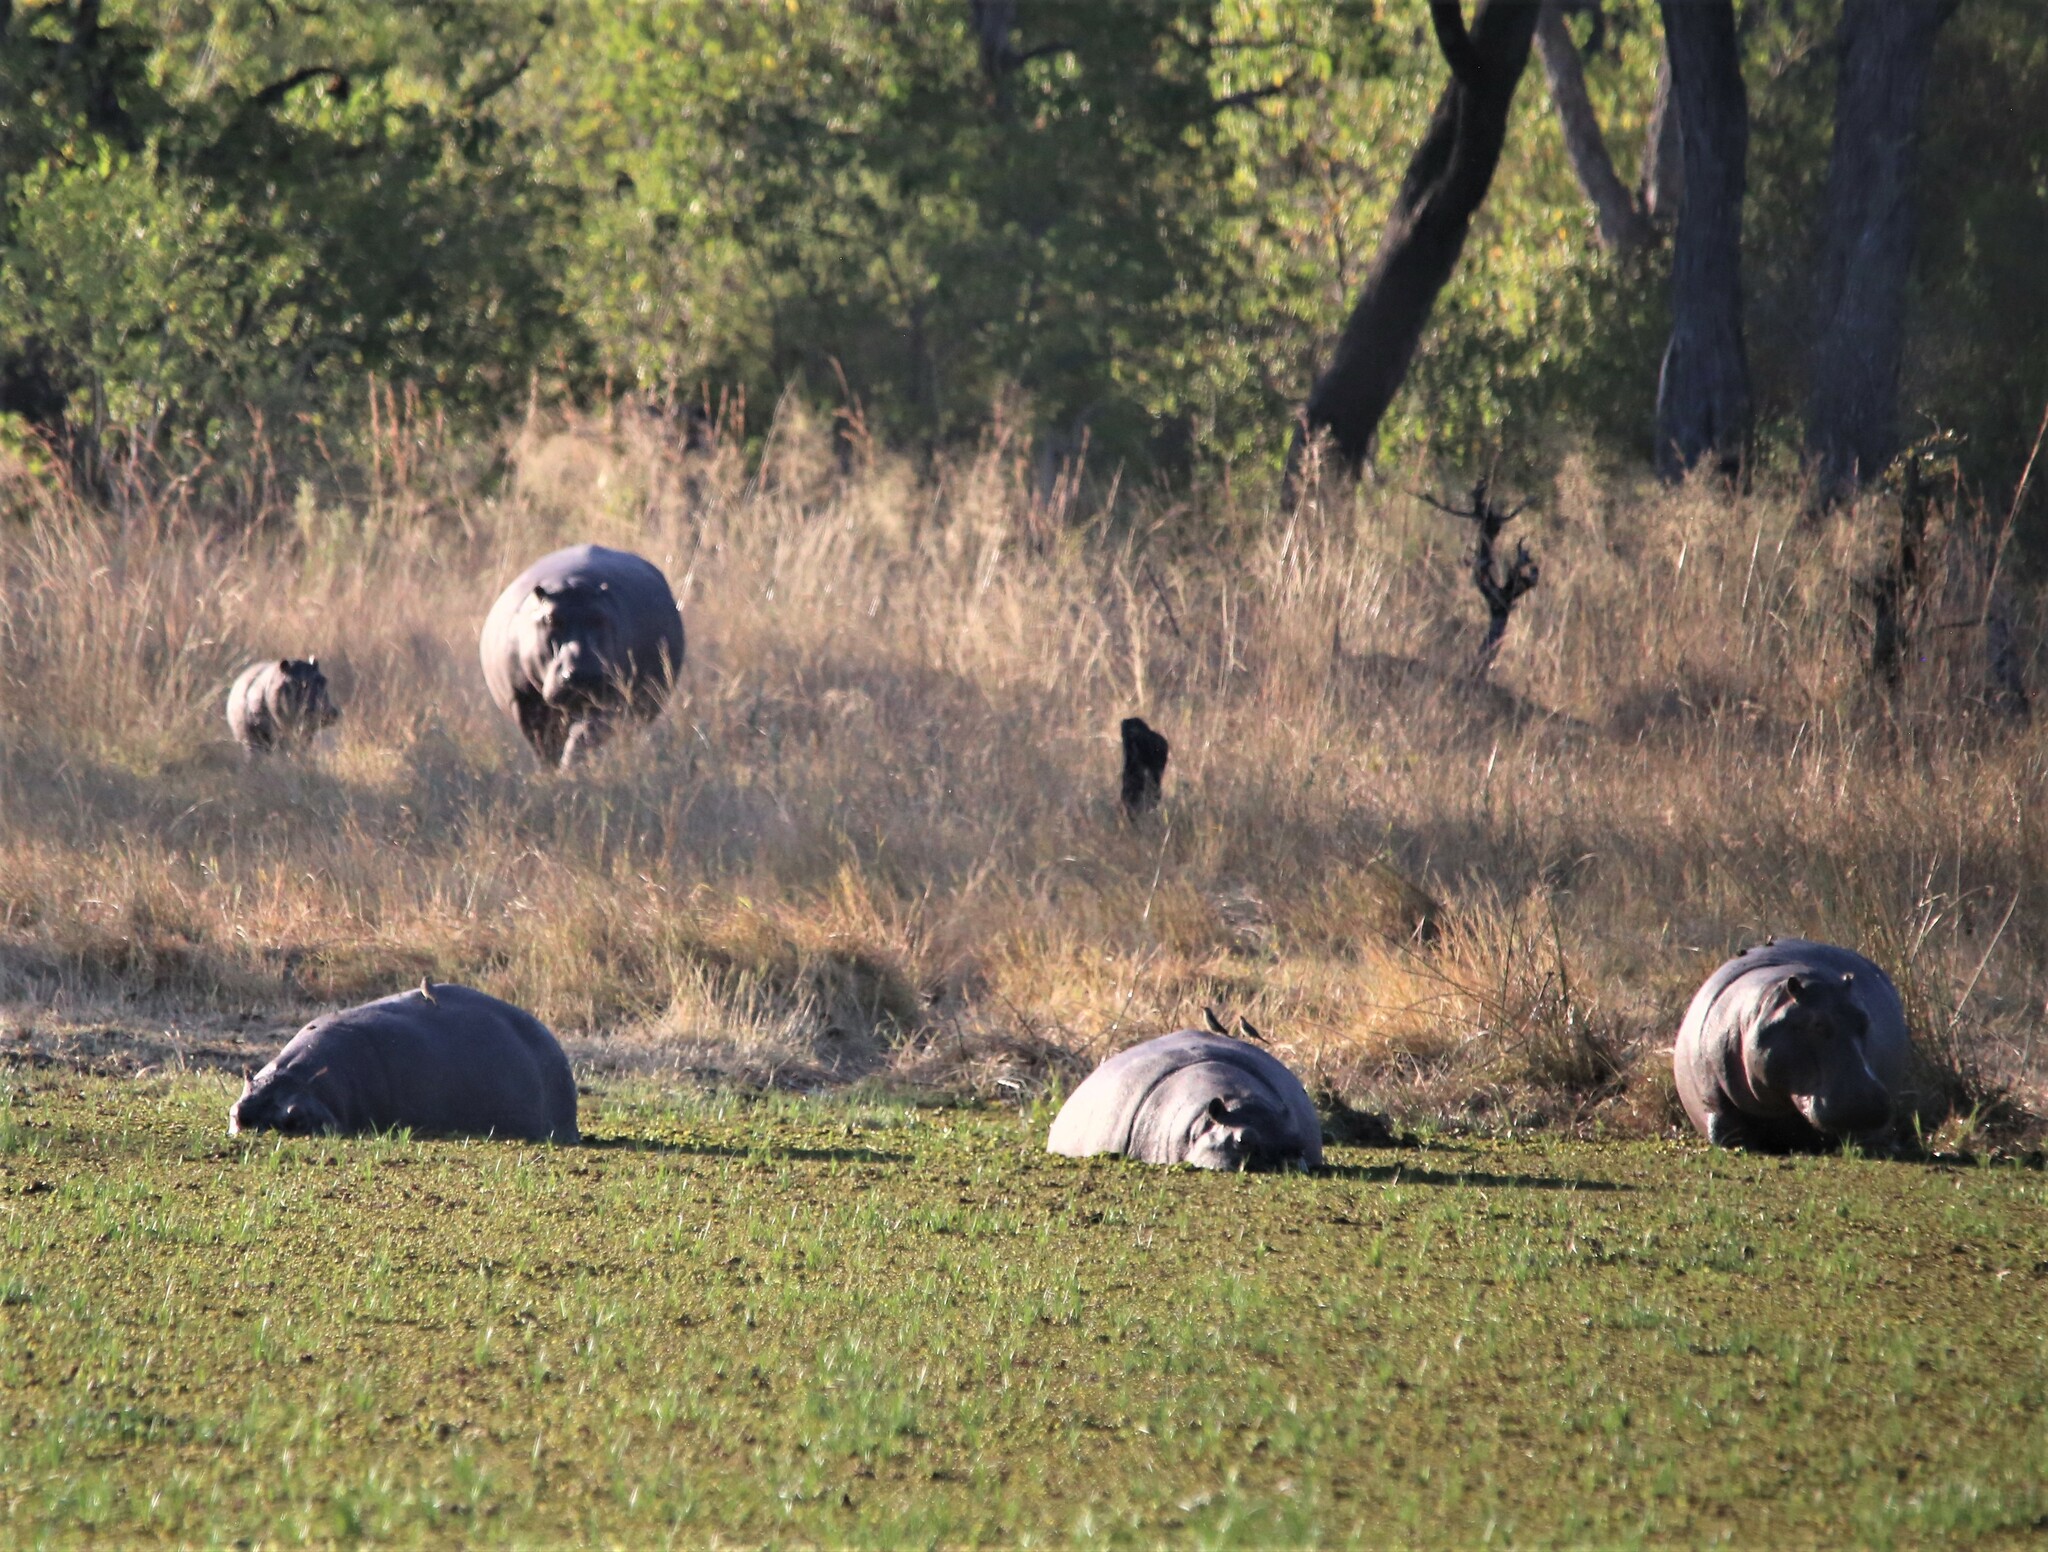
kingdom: Animalia
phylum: Chordata
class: Mammalia
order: Artiodactyla
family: Hippopotamidae
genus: Hippopotamus
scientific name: Hippopotamus amphibius
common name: Common hippopotamus
